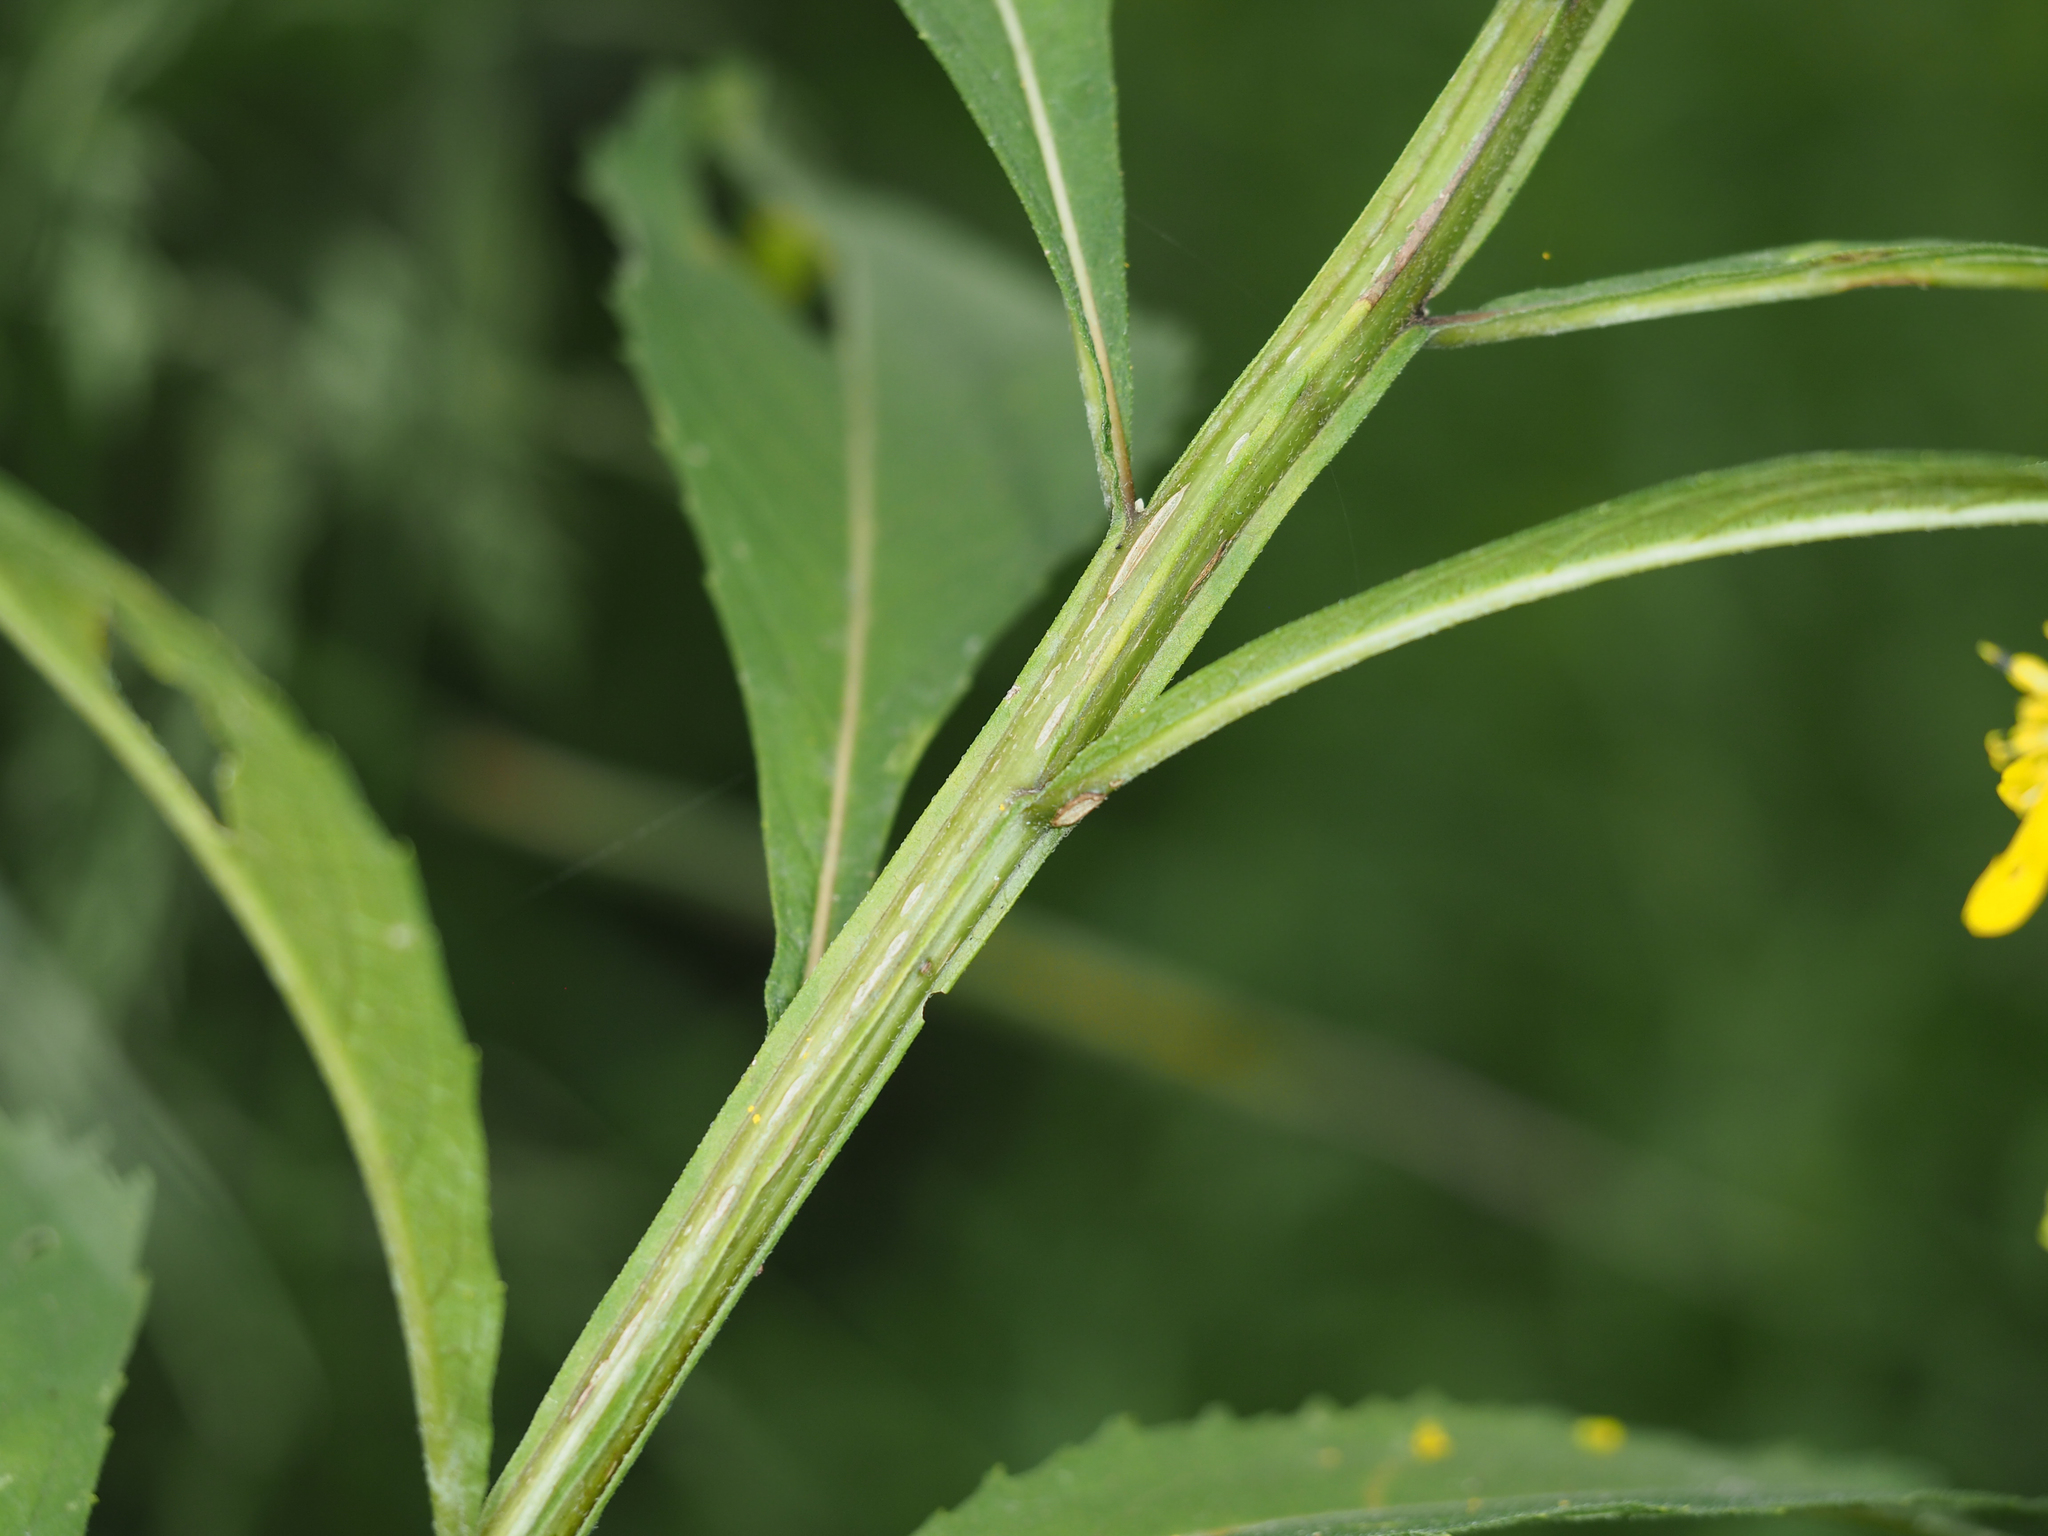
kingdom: Plantae
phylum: Tracheophyta
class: Magnoliopsida
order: Asterales
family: Asteraceae
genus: Verbesina
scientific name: Verbesina alternifolia
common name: Wingstem
